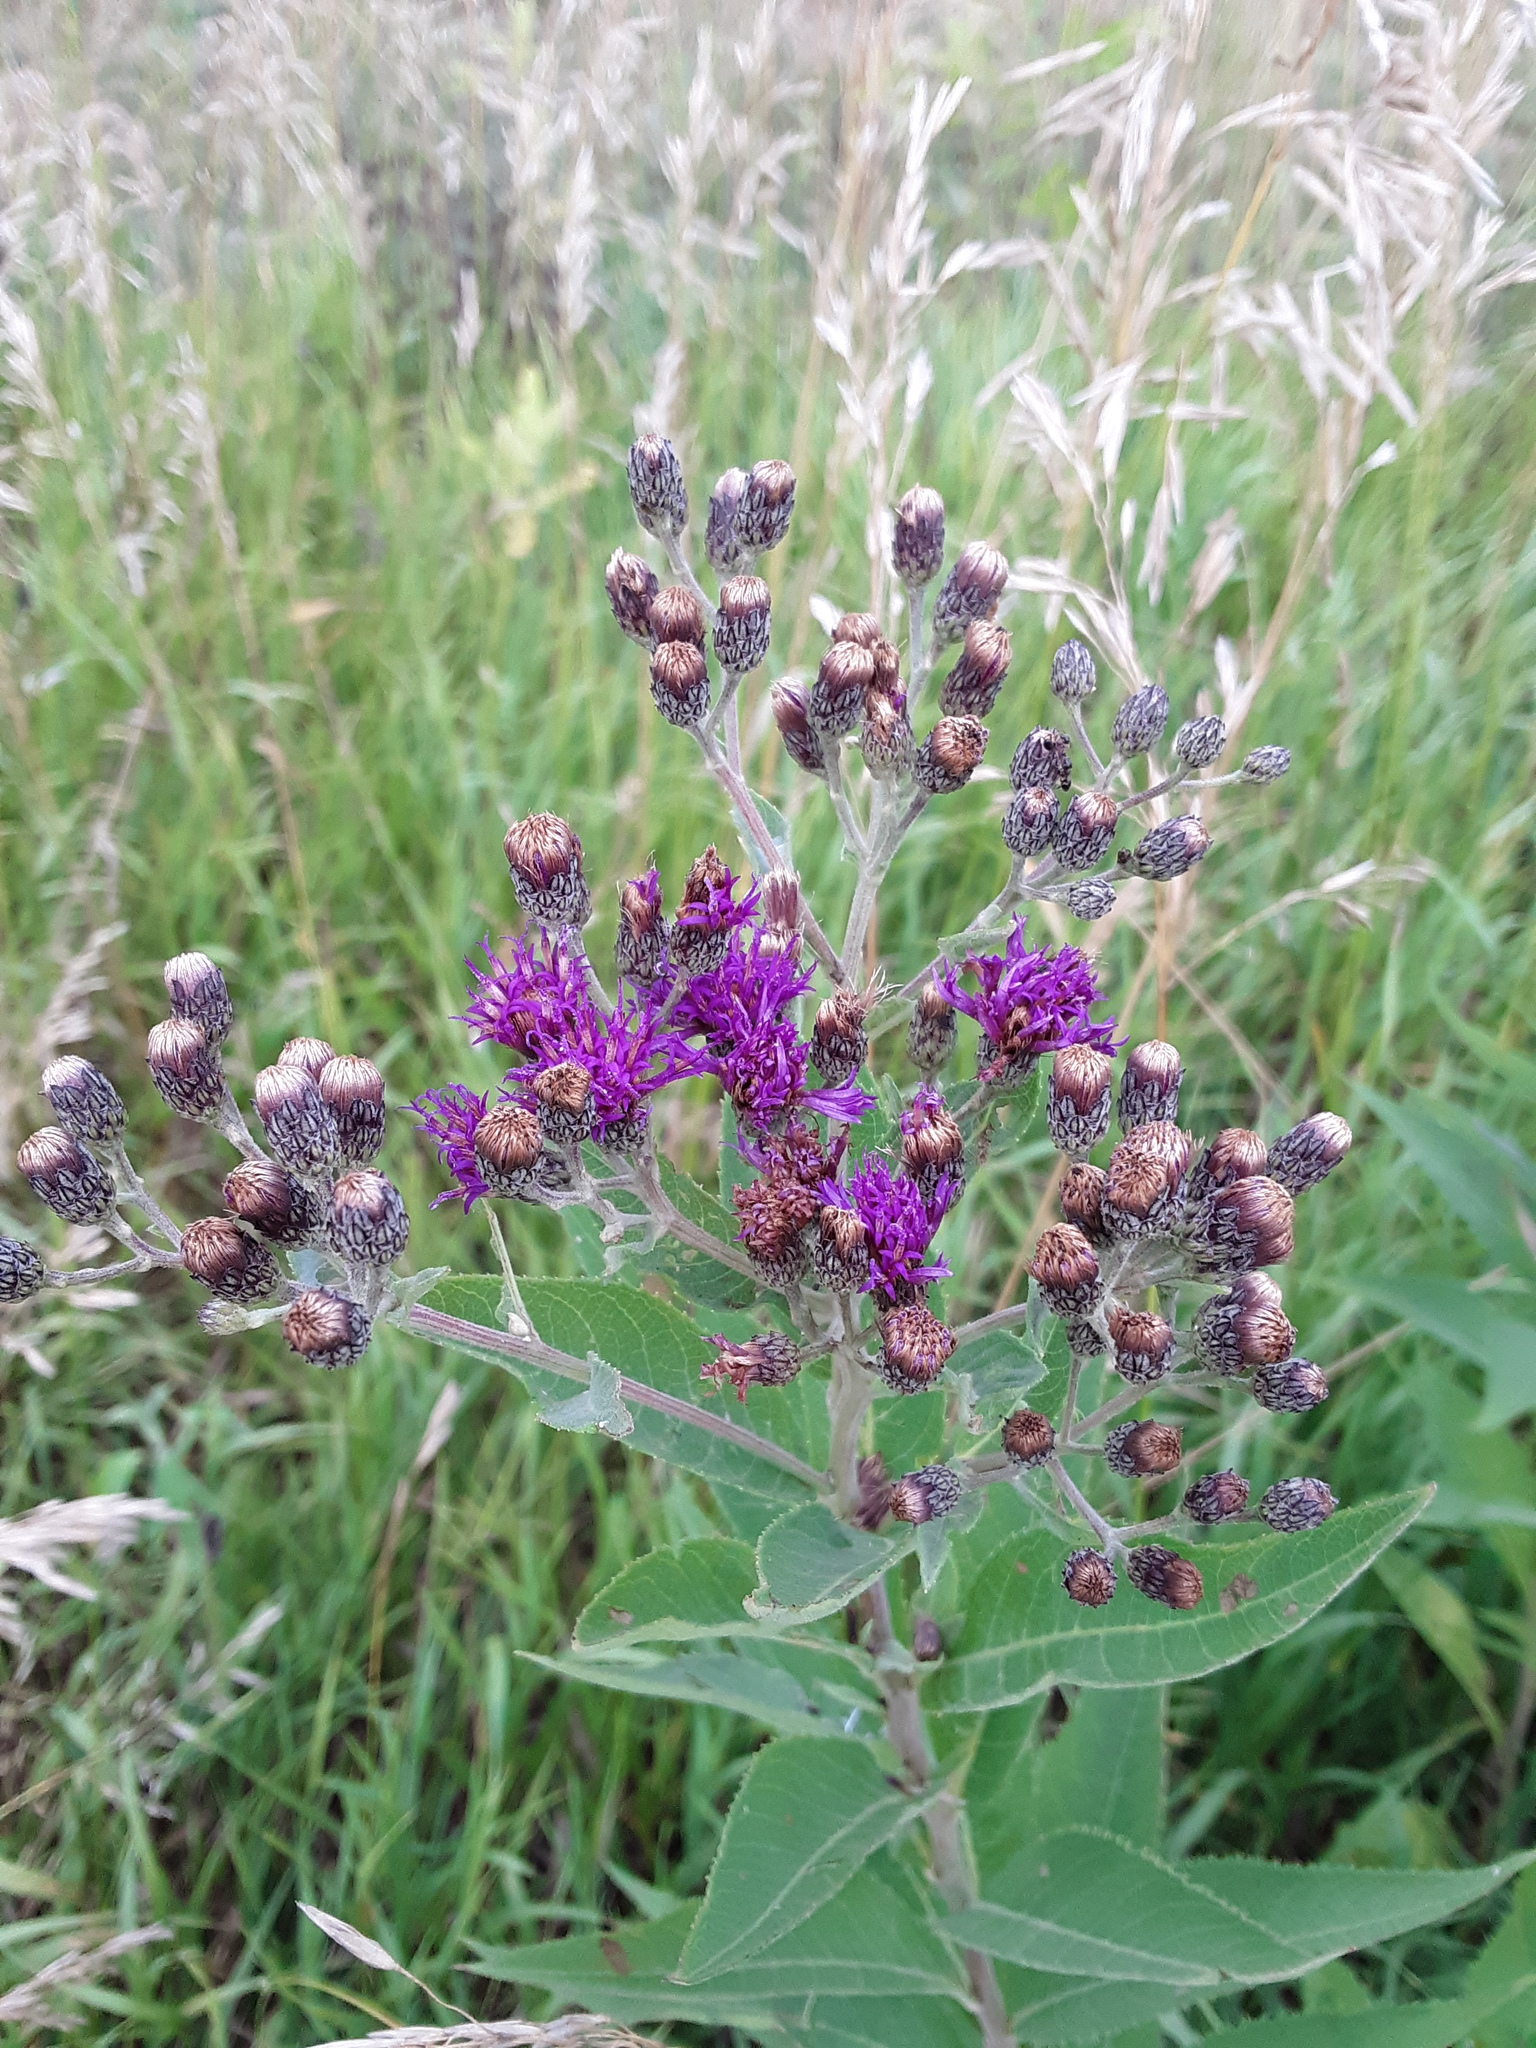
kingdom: Plantae
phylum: Tracheophyta
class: Magnoliopsida
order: Asterales
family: Asteraceae
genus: Vernonia
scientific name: Vernonia baldwinii
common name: Western ironweed
